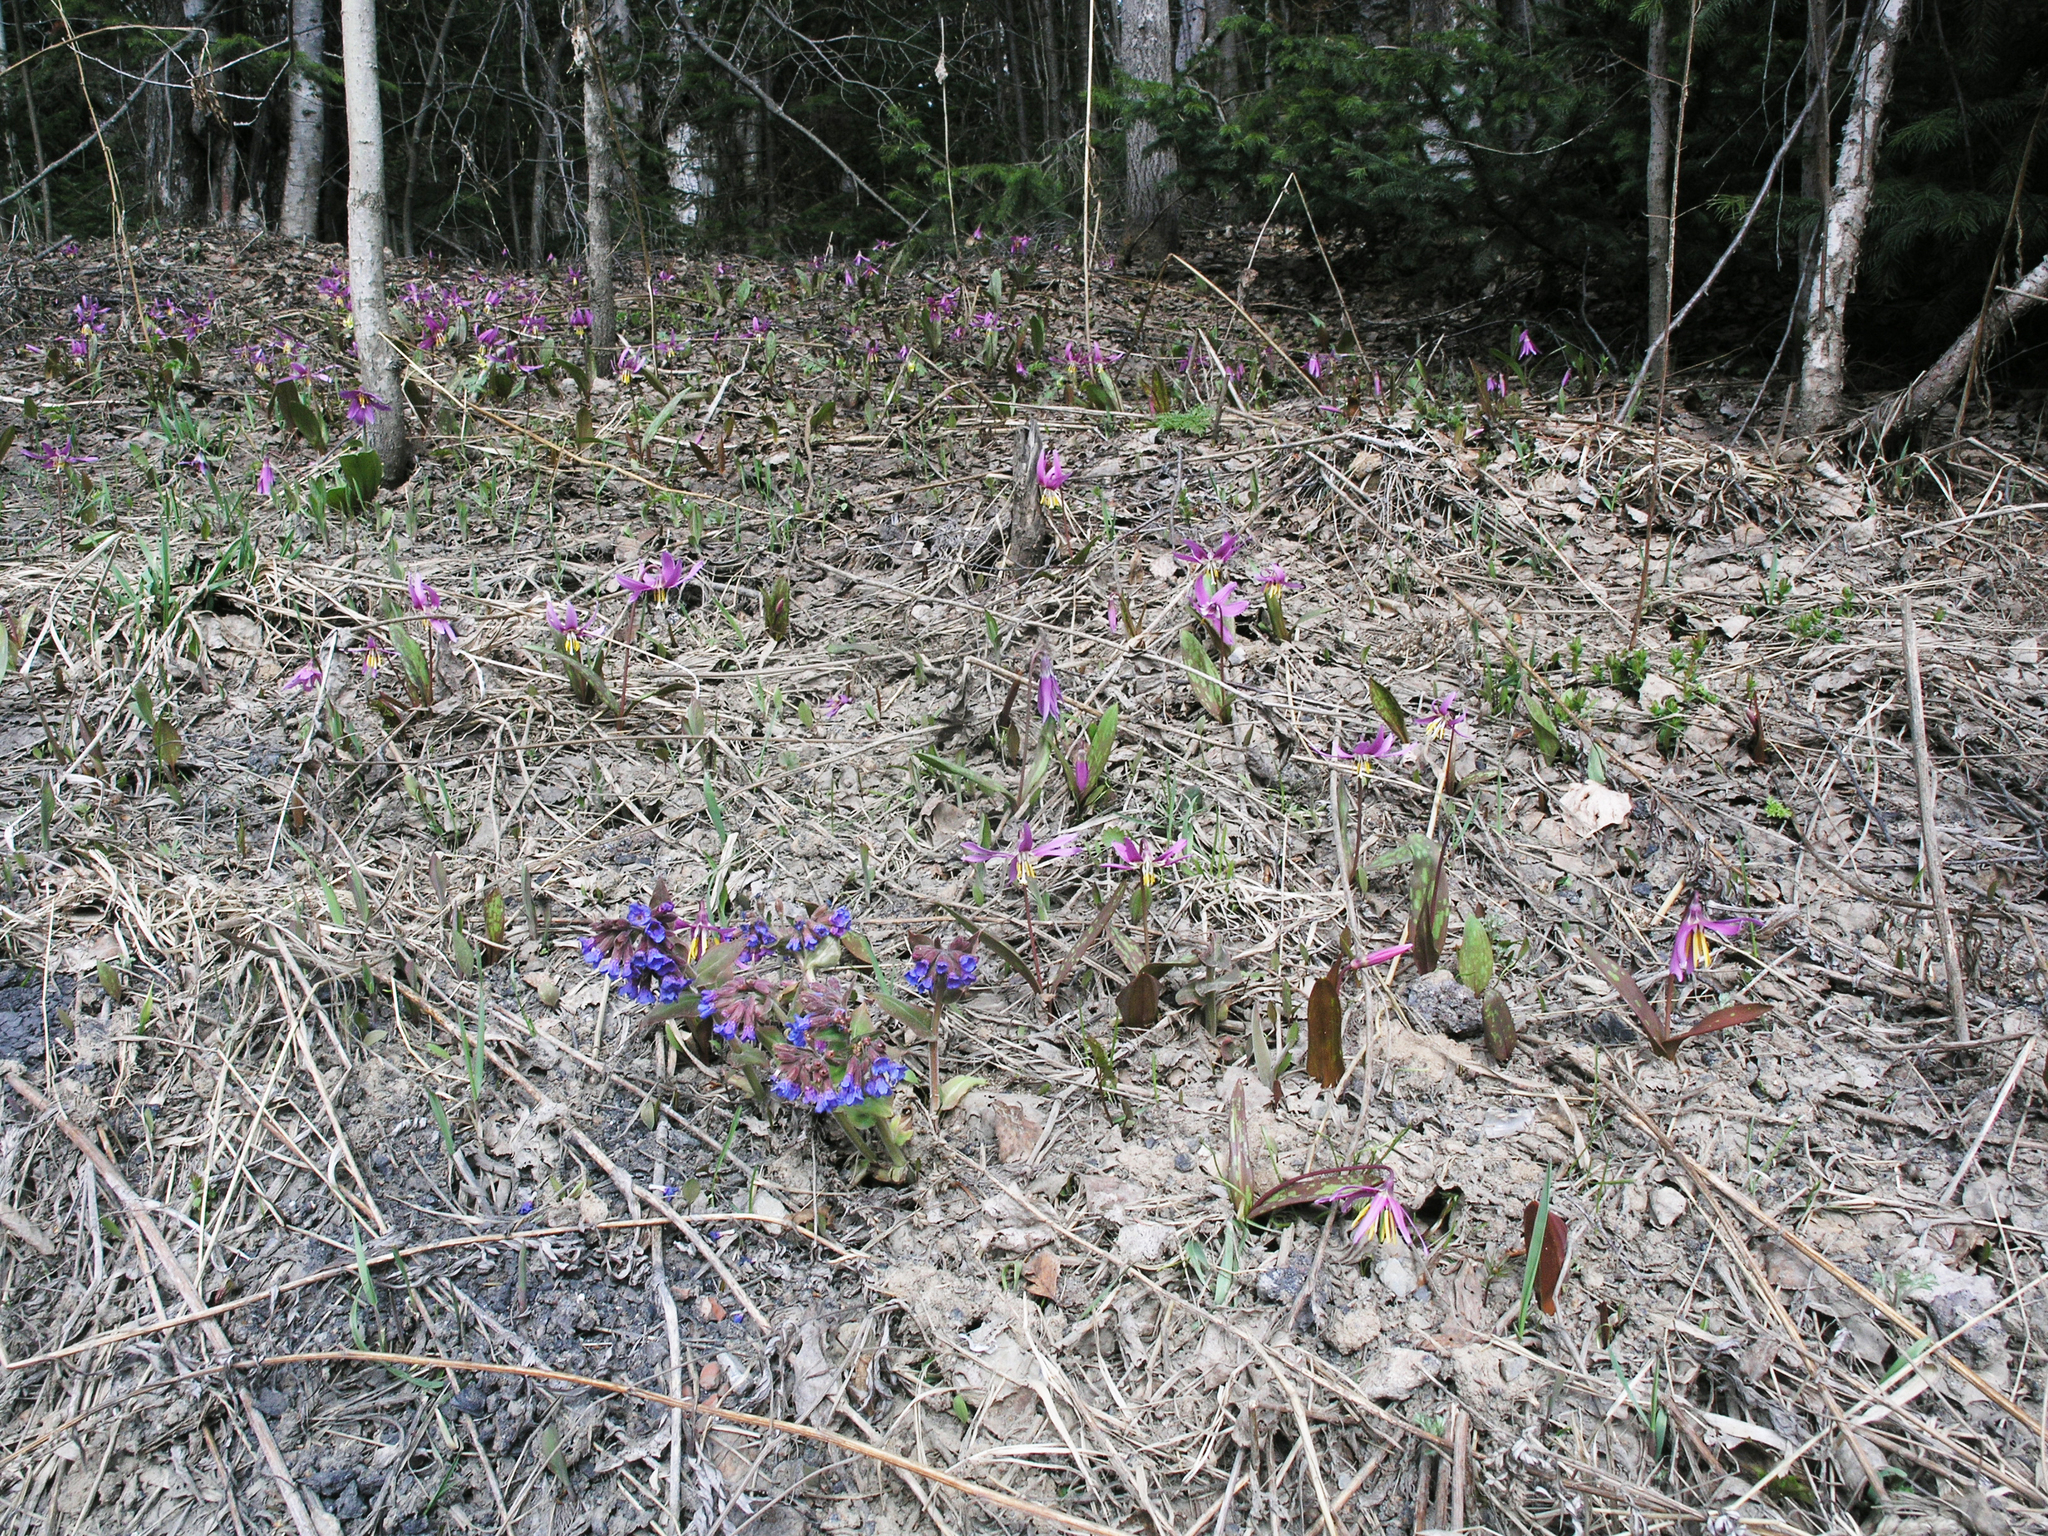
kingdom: Plantae
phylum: Tracheophyta
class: Magnoliopsida
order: Boraginales
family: Boraginaceae
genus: Pulmonaria
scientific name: Pulmonaria mollis
